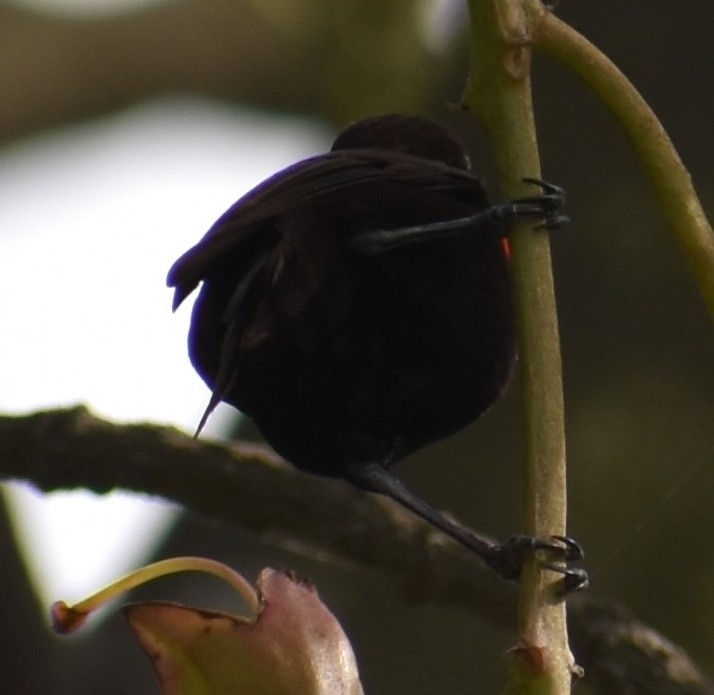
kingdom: Animalia
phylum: Chordata
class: Aves
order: Passeriformes
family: Nectariniidae
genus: Chalcomitra
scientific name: Chalcomitra senegalensis
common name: Scarlet-chested sunbird
